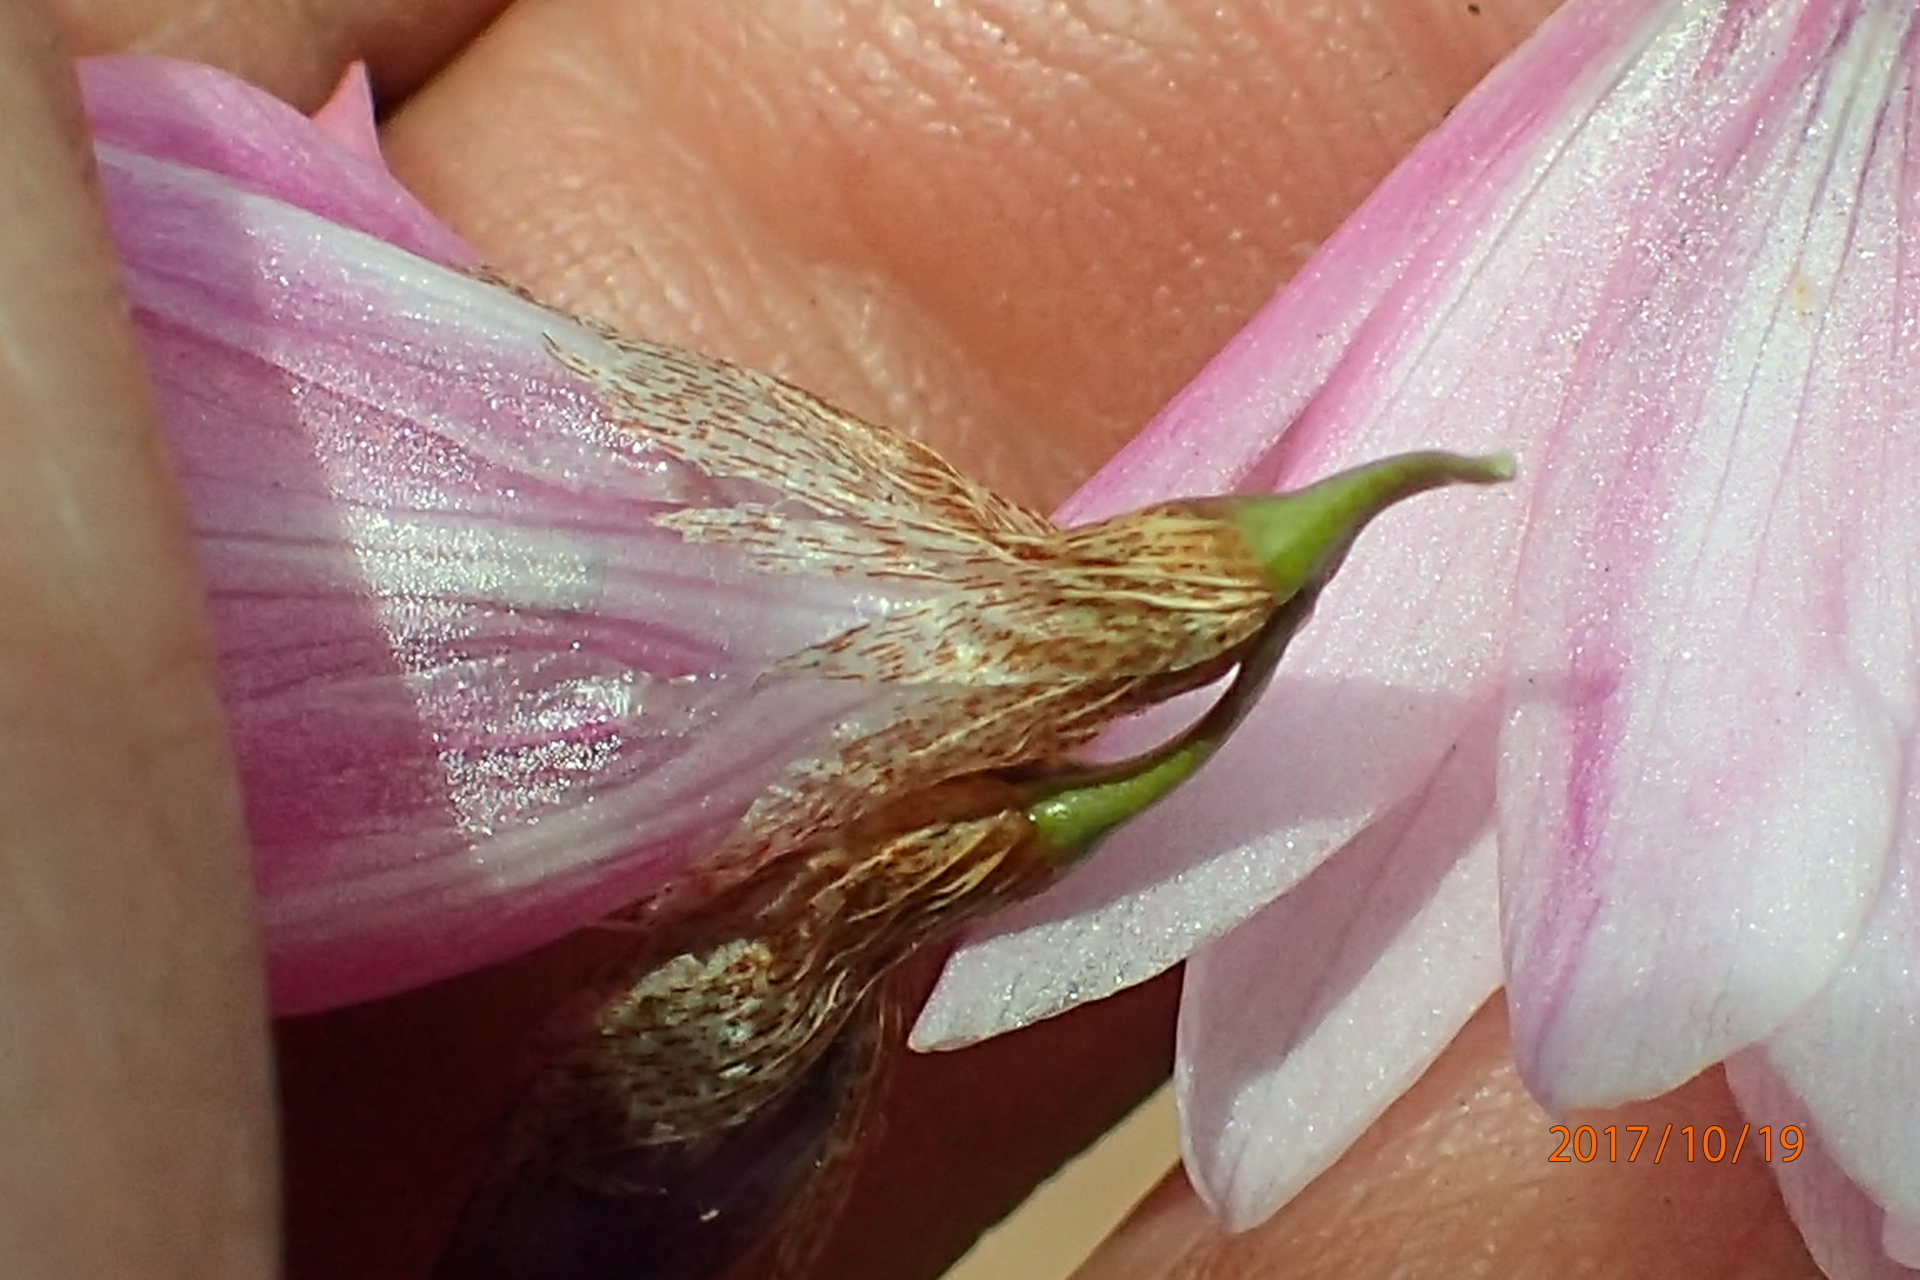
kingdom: Plantae
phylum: Tracheophyta
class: Liliopsida
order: Asparagales
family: Iridaceae
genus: Dierama
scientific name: Dierama
